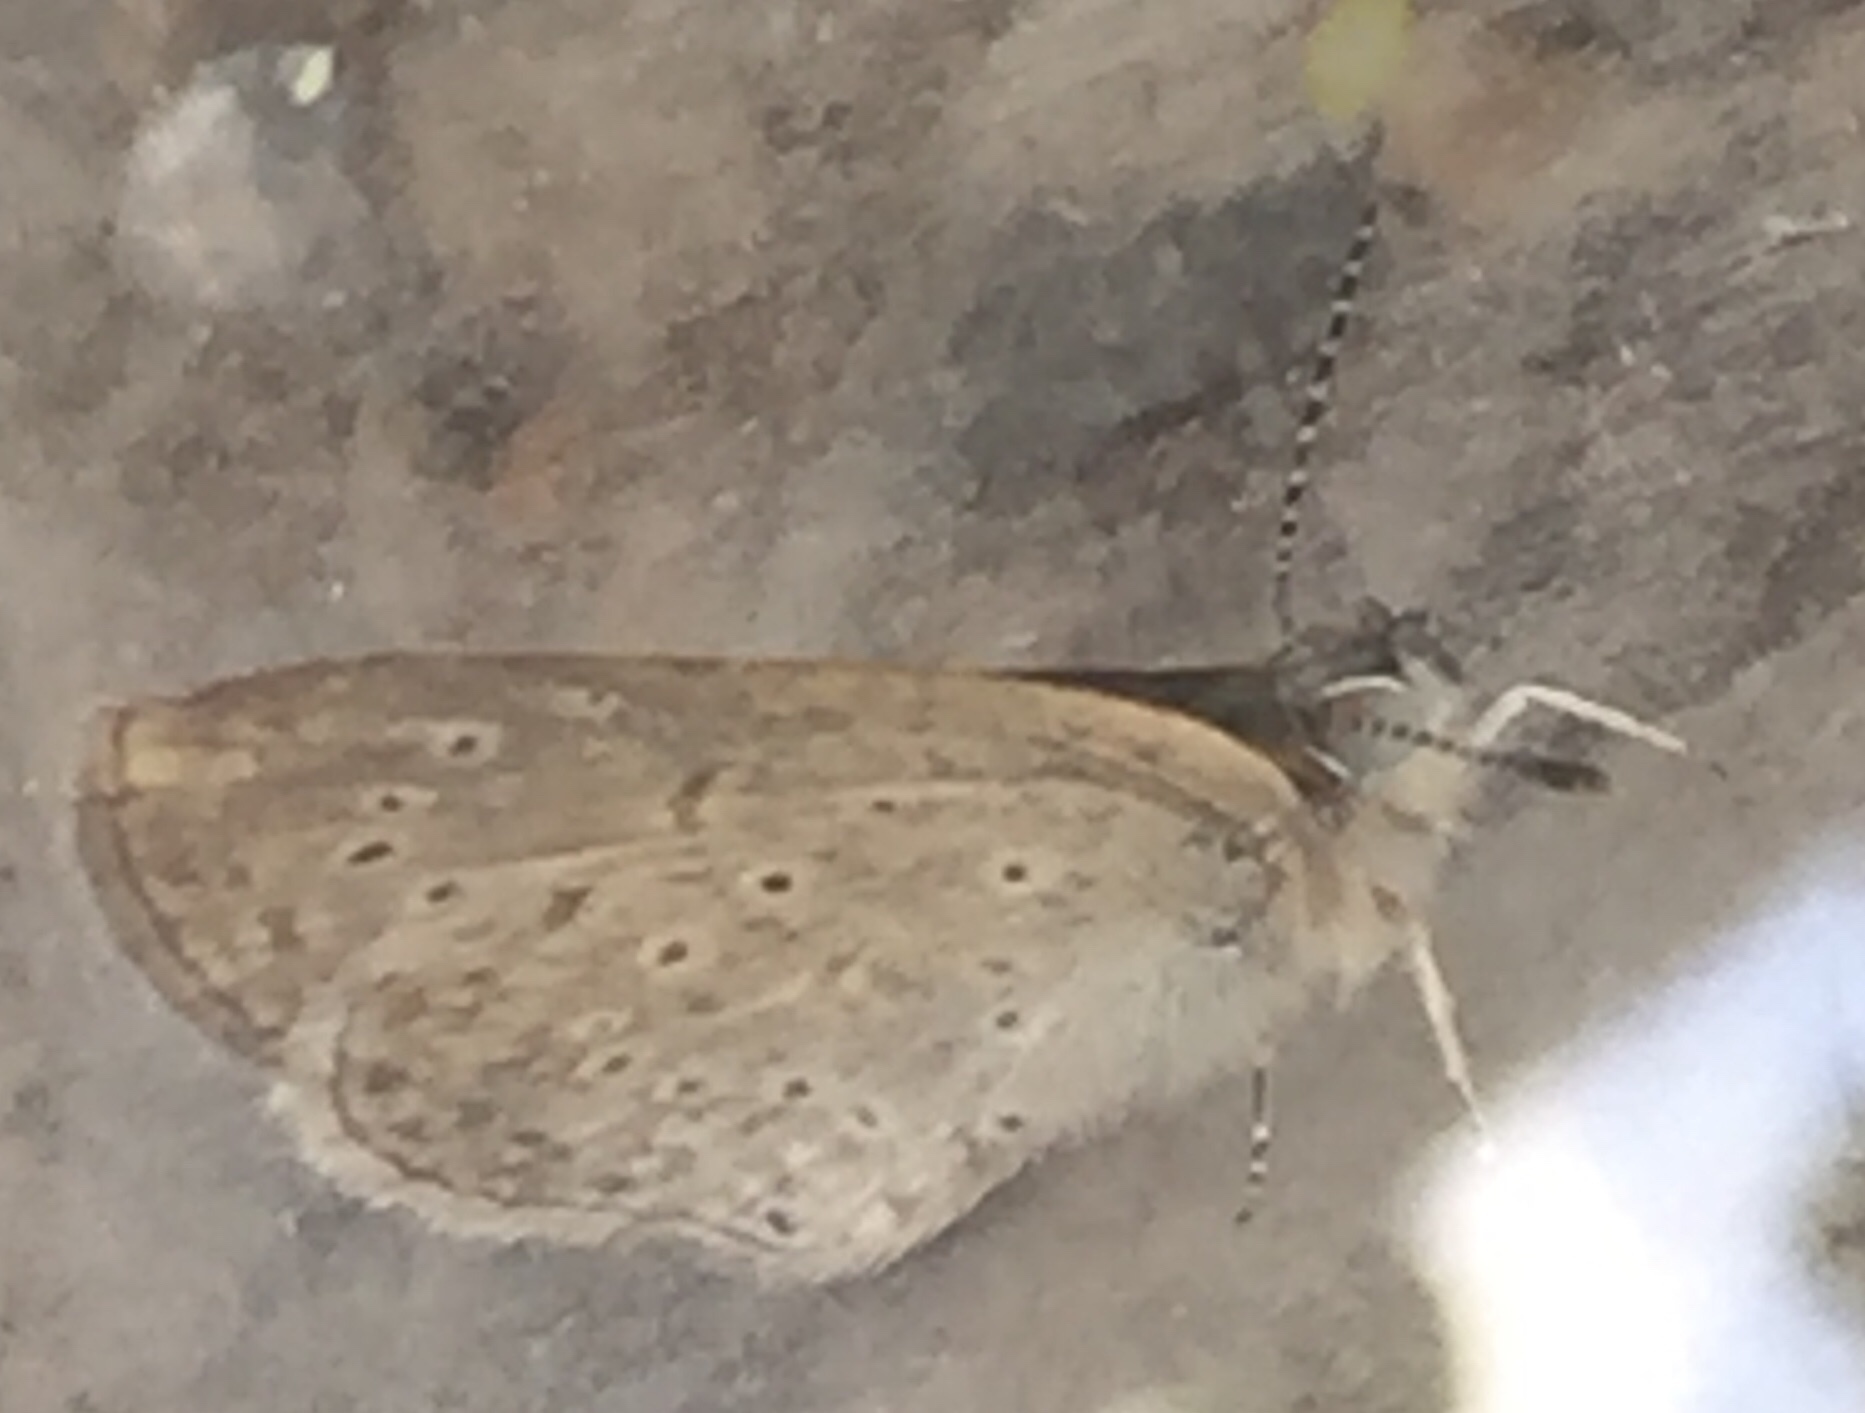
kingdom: Animalia
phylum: Arthropoda
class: Insecta
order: Lepidoptera
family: Lycaenidae
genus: Zizeeria
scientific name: Zizeeria knysna
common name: African grass blue
